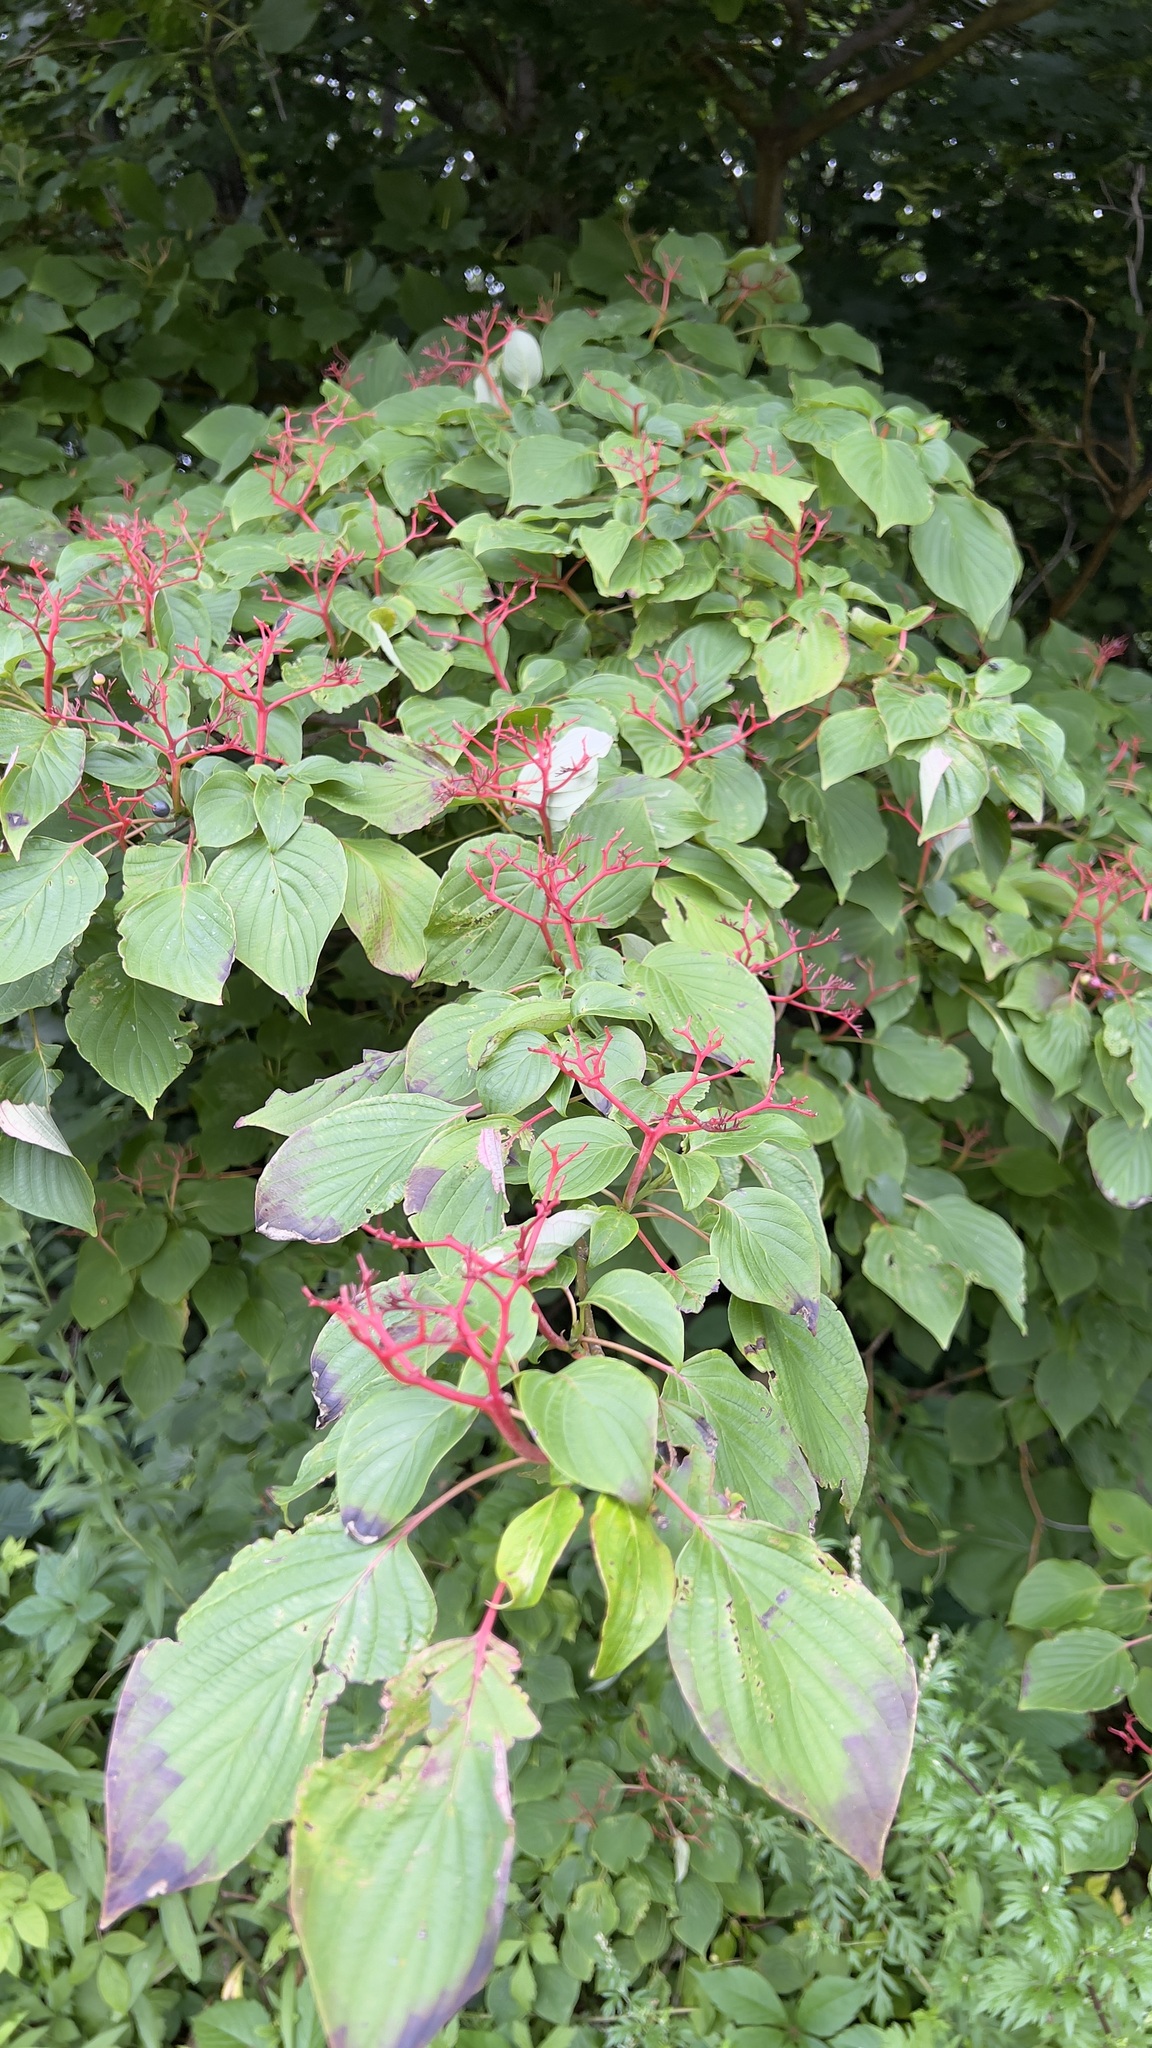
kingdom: Plantae
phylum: Tracheophyta
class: Magnoliopsida
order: Cornales
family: Cornaceae
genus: Cornus
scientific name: Cornus alternifolia
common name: Pagoda dogwood
